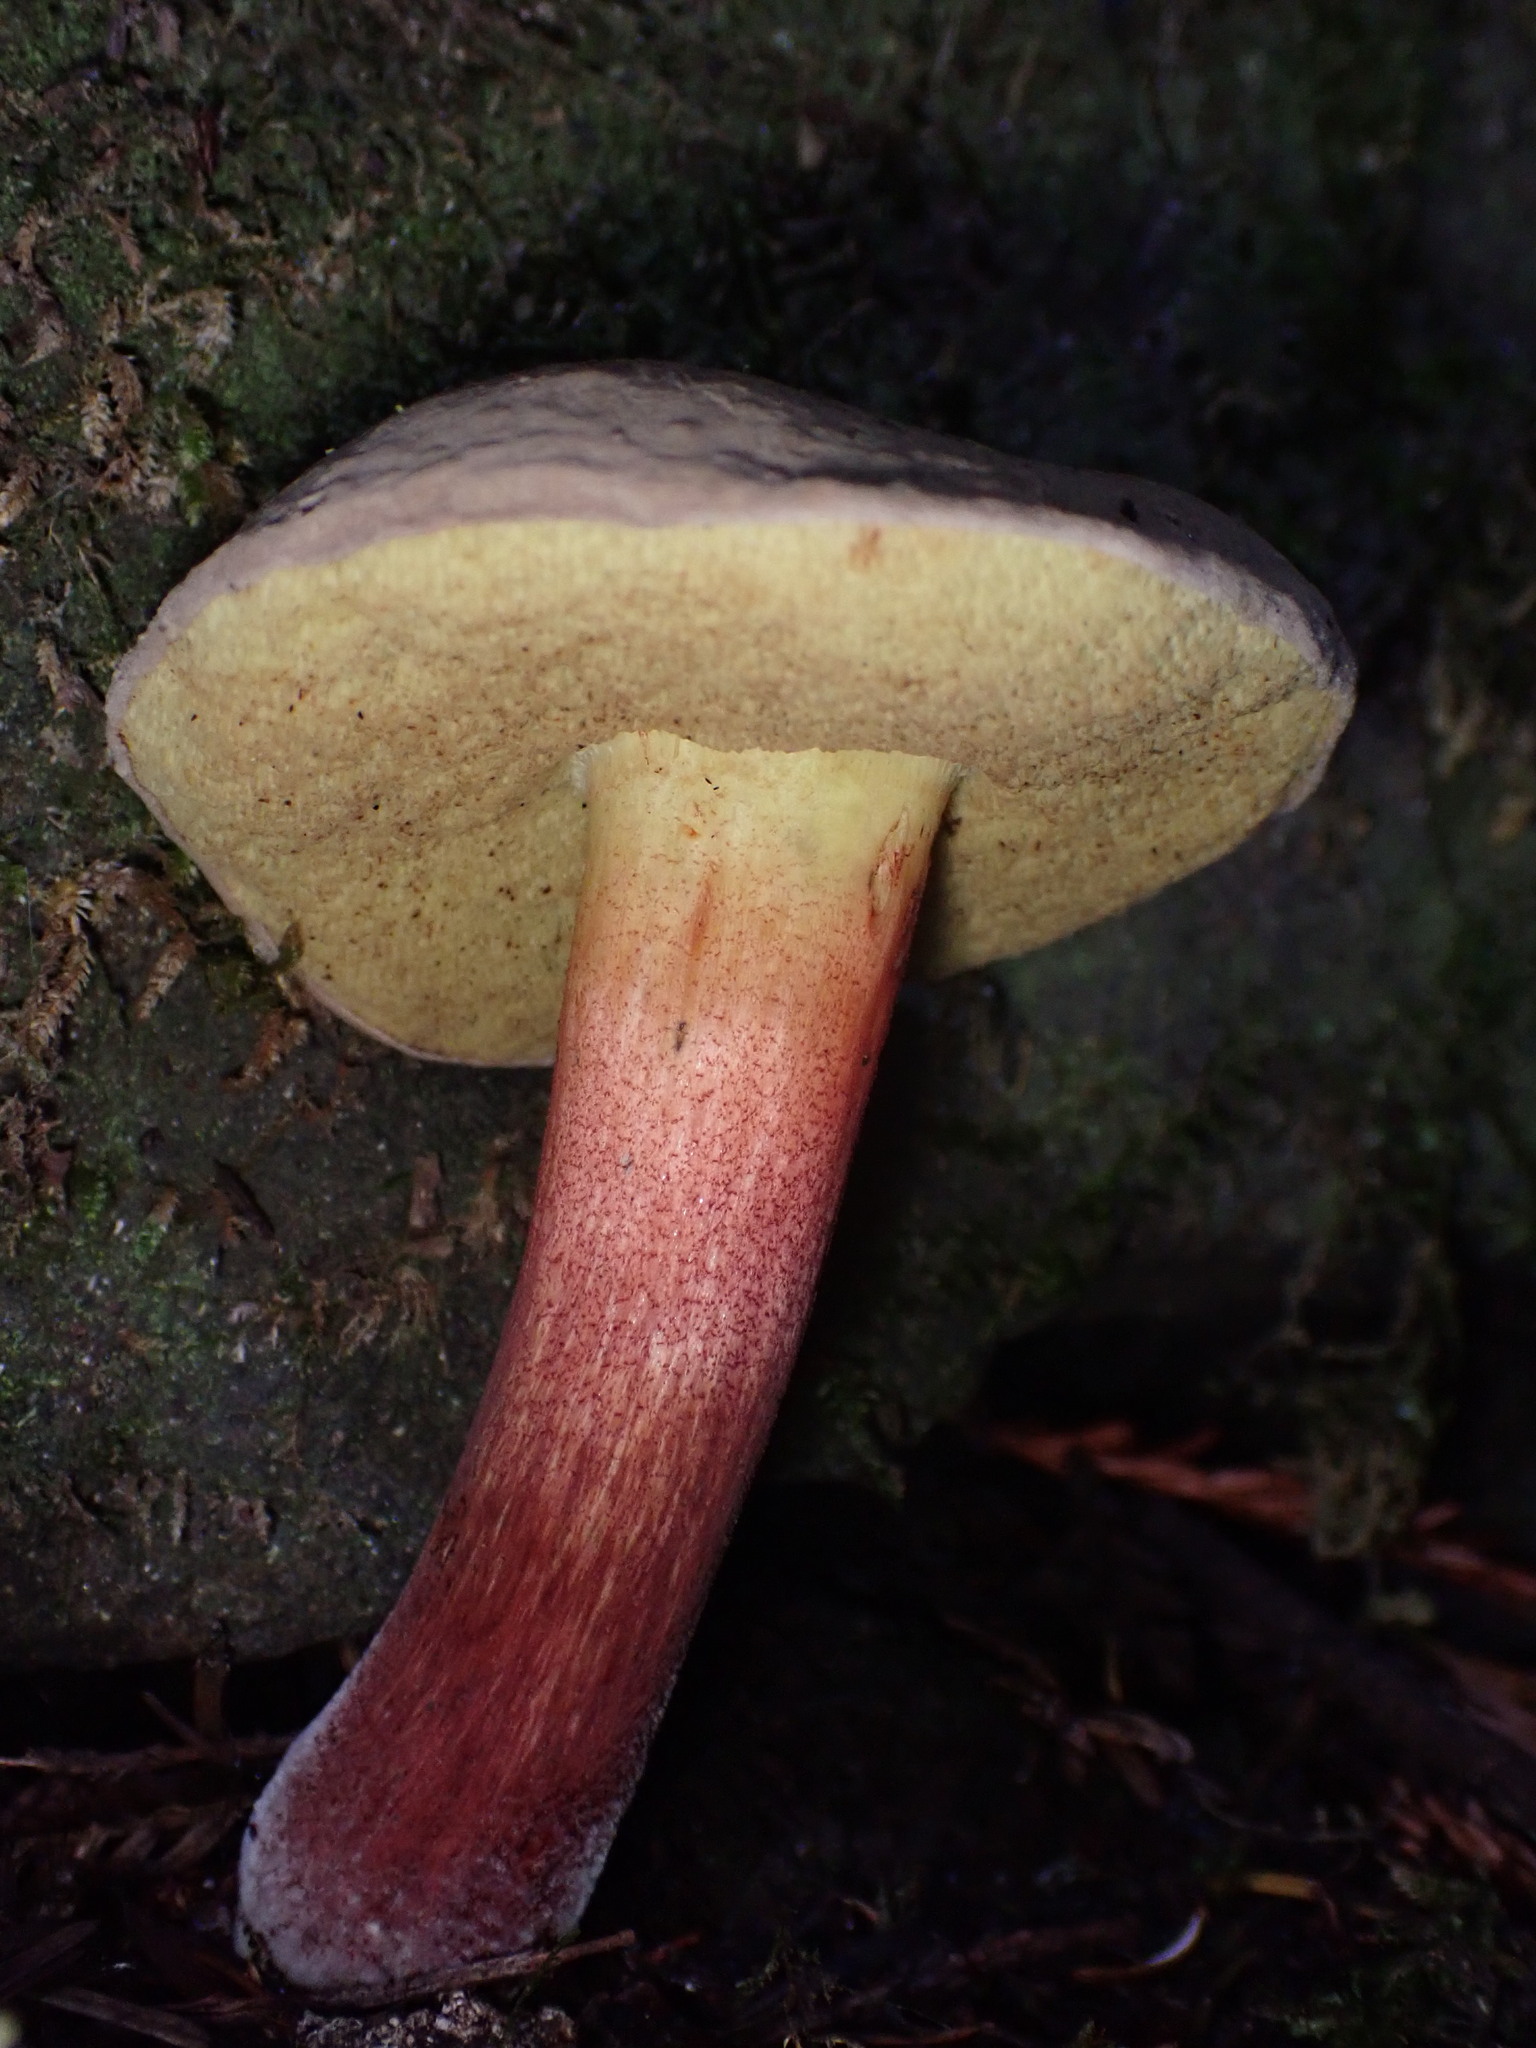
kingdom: Fungi
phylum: Basidiomycota
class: Agaricomycetes
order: Boletales
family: Boletaceae
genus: Xerocomellus
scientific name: Xerocomellus mendocinensis
